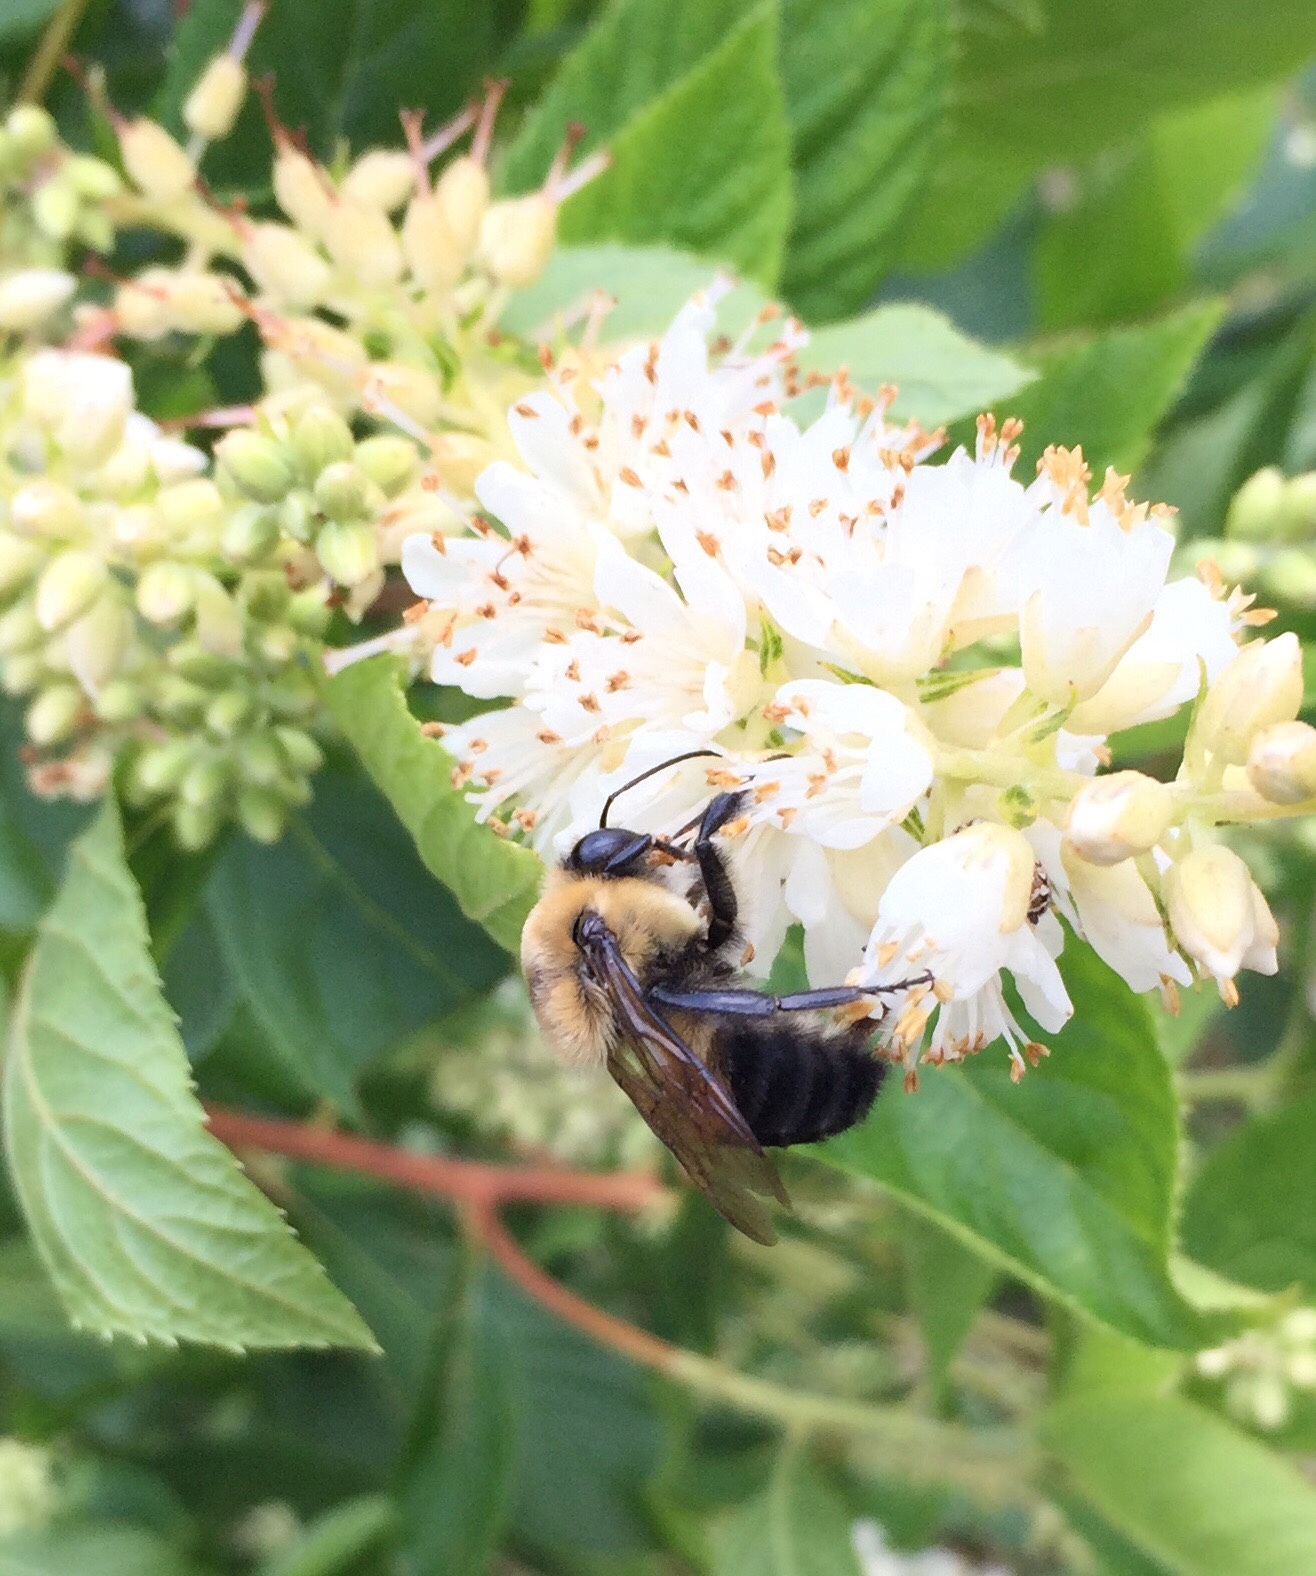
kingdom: Animalia
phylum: Arthropoda
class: Insecta
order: Hymenoptera
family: Apidae
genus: Bombus
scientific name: Bombus griseocollis
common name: Brown-belted bumble bee
